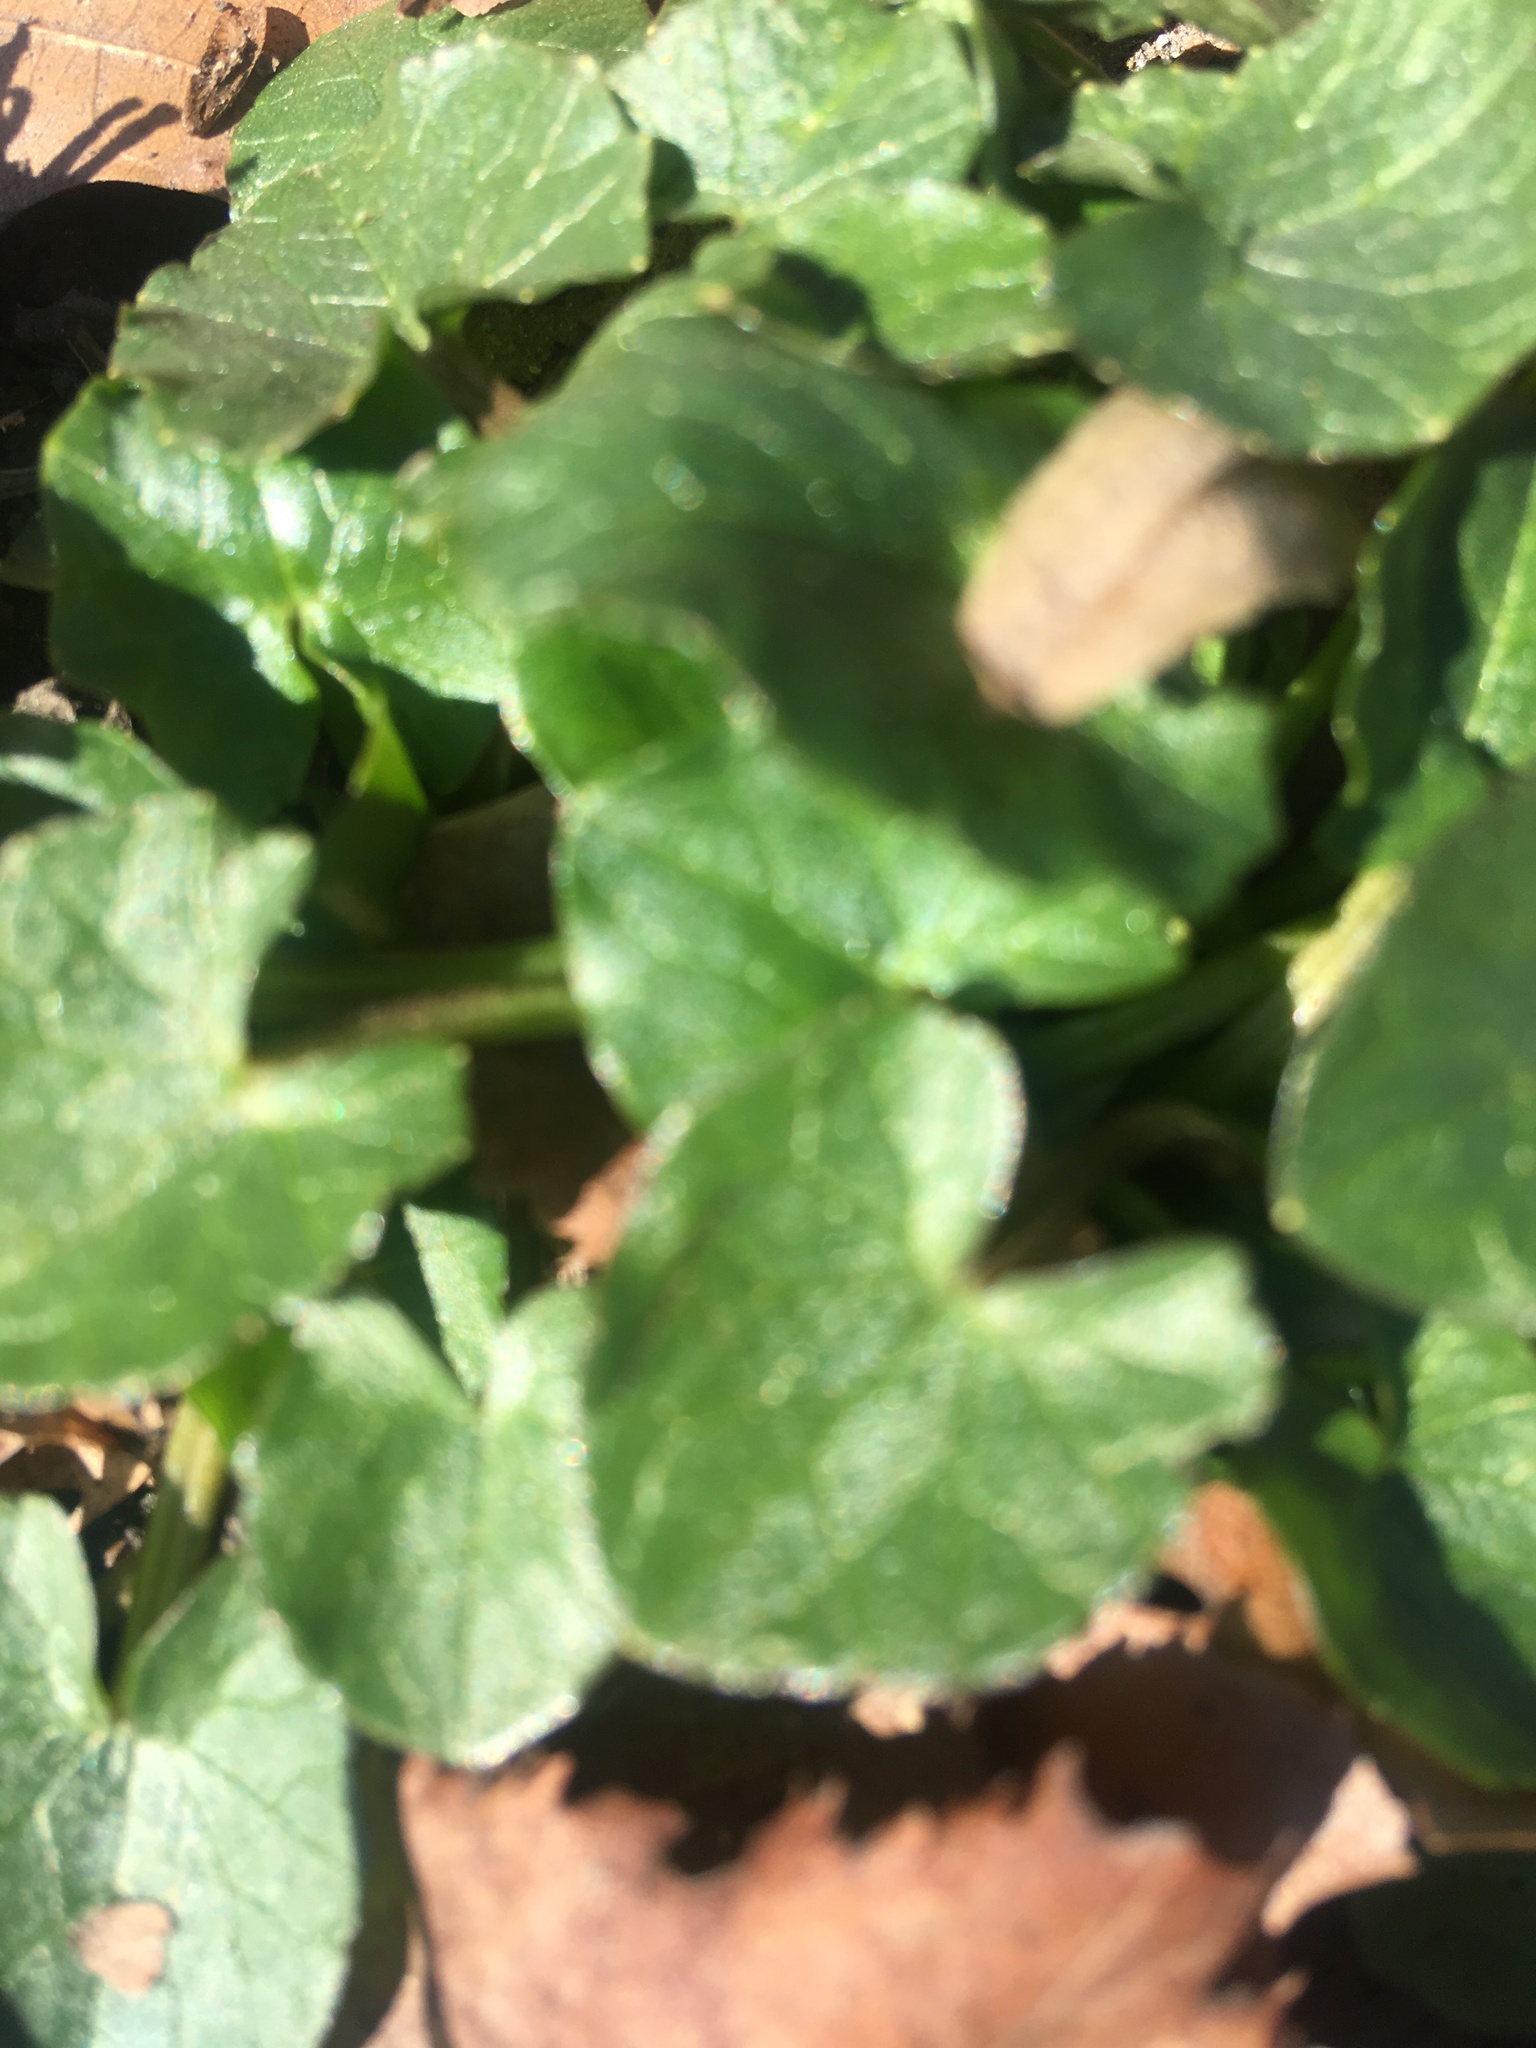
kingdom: Plantae
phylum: Tracheophyta
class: Magnoliopsida
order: Ranunculales
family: Ranunculaceae
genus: Ficaria
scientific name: Ficaria verna
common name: Lesser celandine
